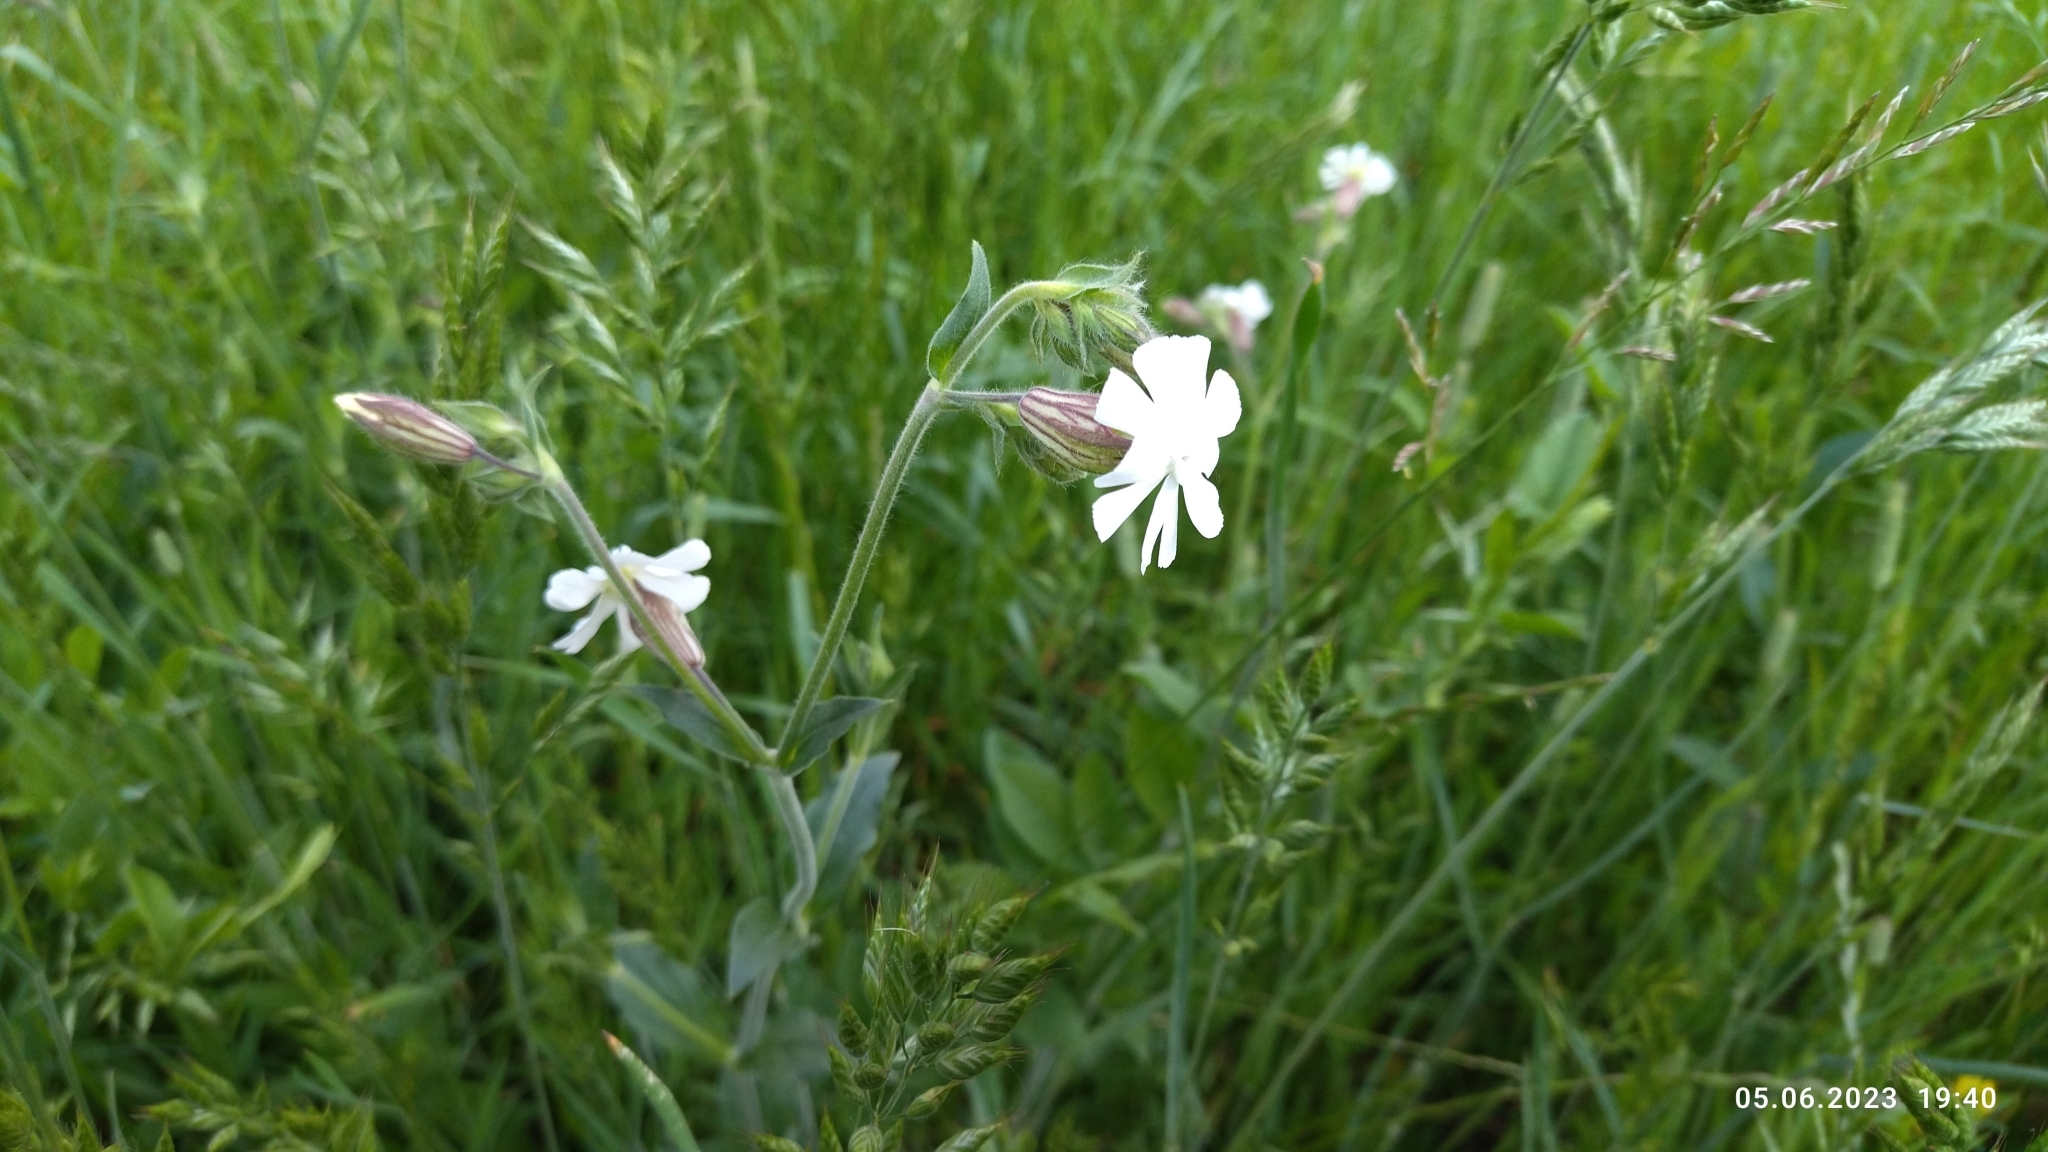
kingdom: Plantae
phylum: Tracheophyta
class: Magnoliopsida
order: Caryophyllales
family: Caryophyllaceae
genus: Silene
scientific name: Silene latifolia
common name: White campion
